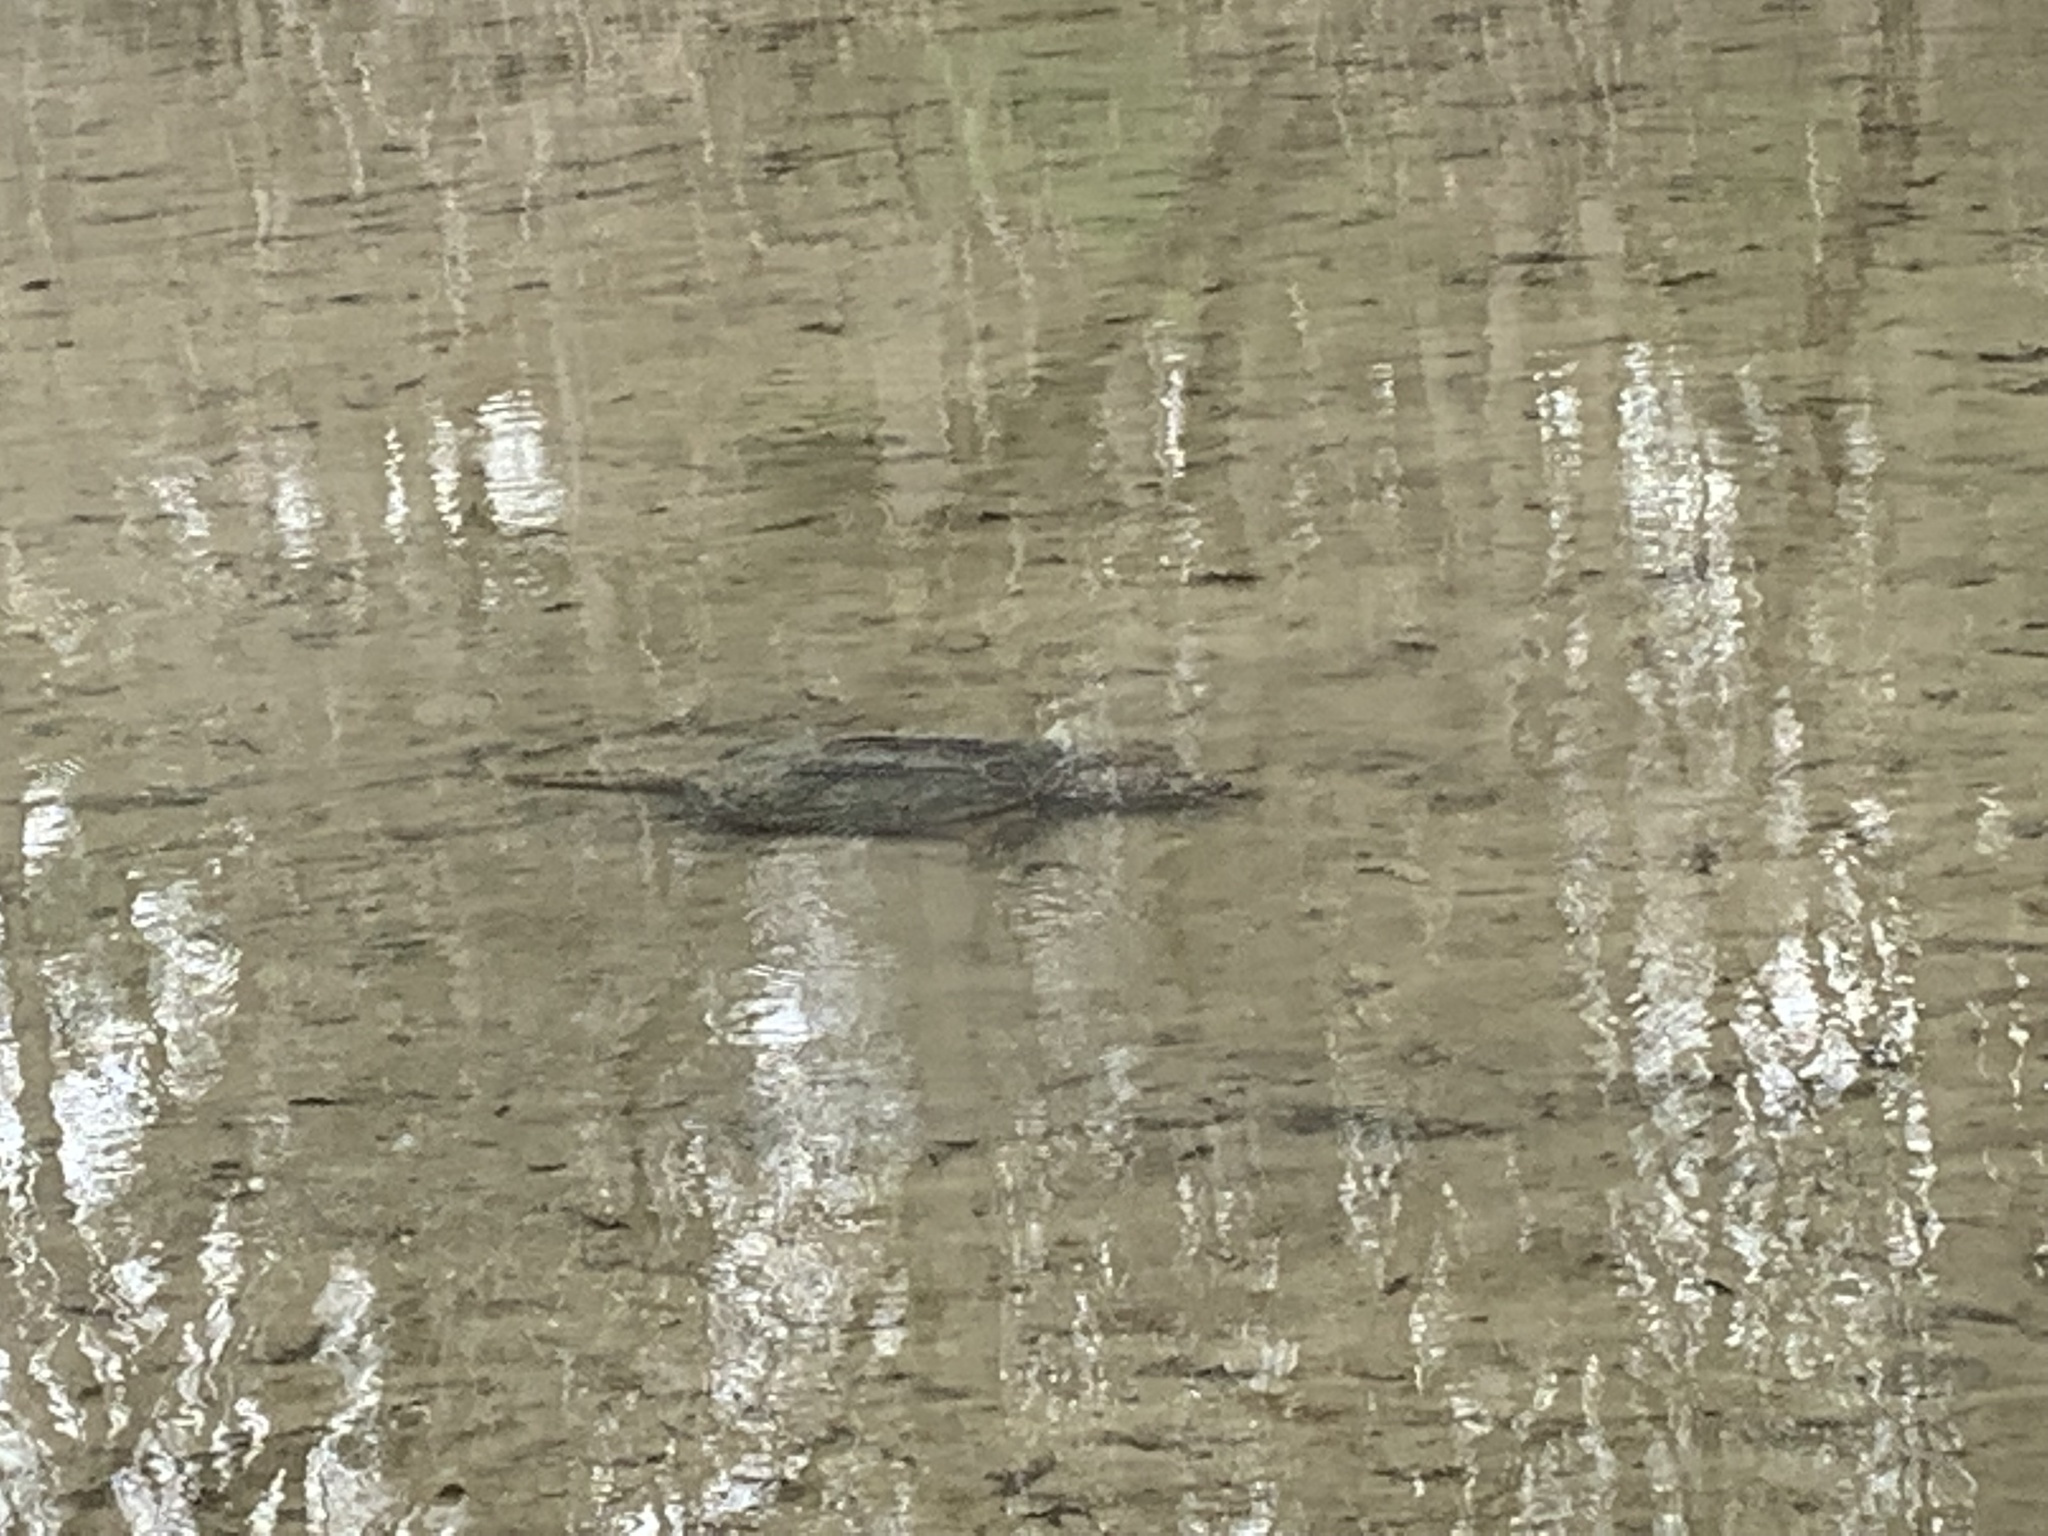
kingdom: Animalia
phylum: Chordata
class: Testudines
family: Chelydridae
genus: Chelydra
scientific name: Chelydra serpentina
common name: Common snapping turtle
